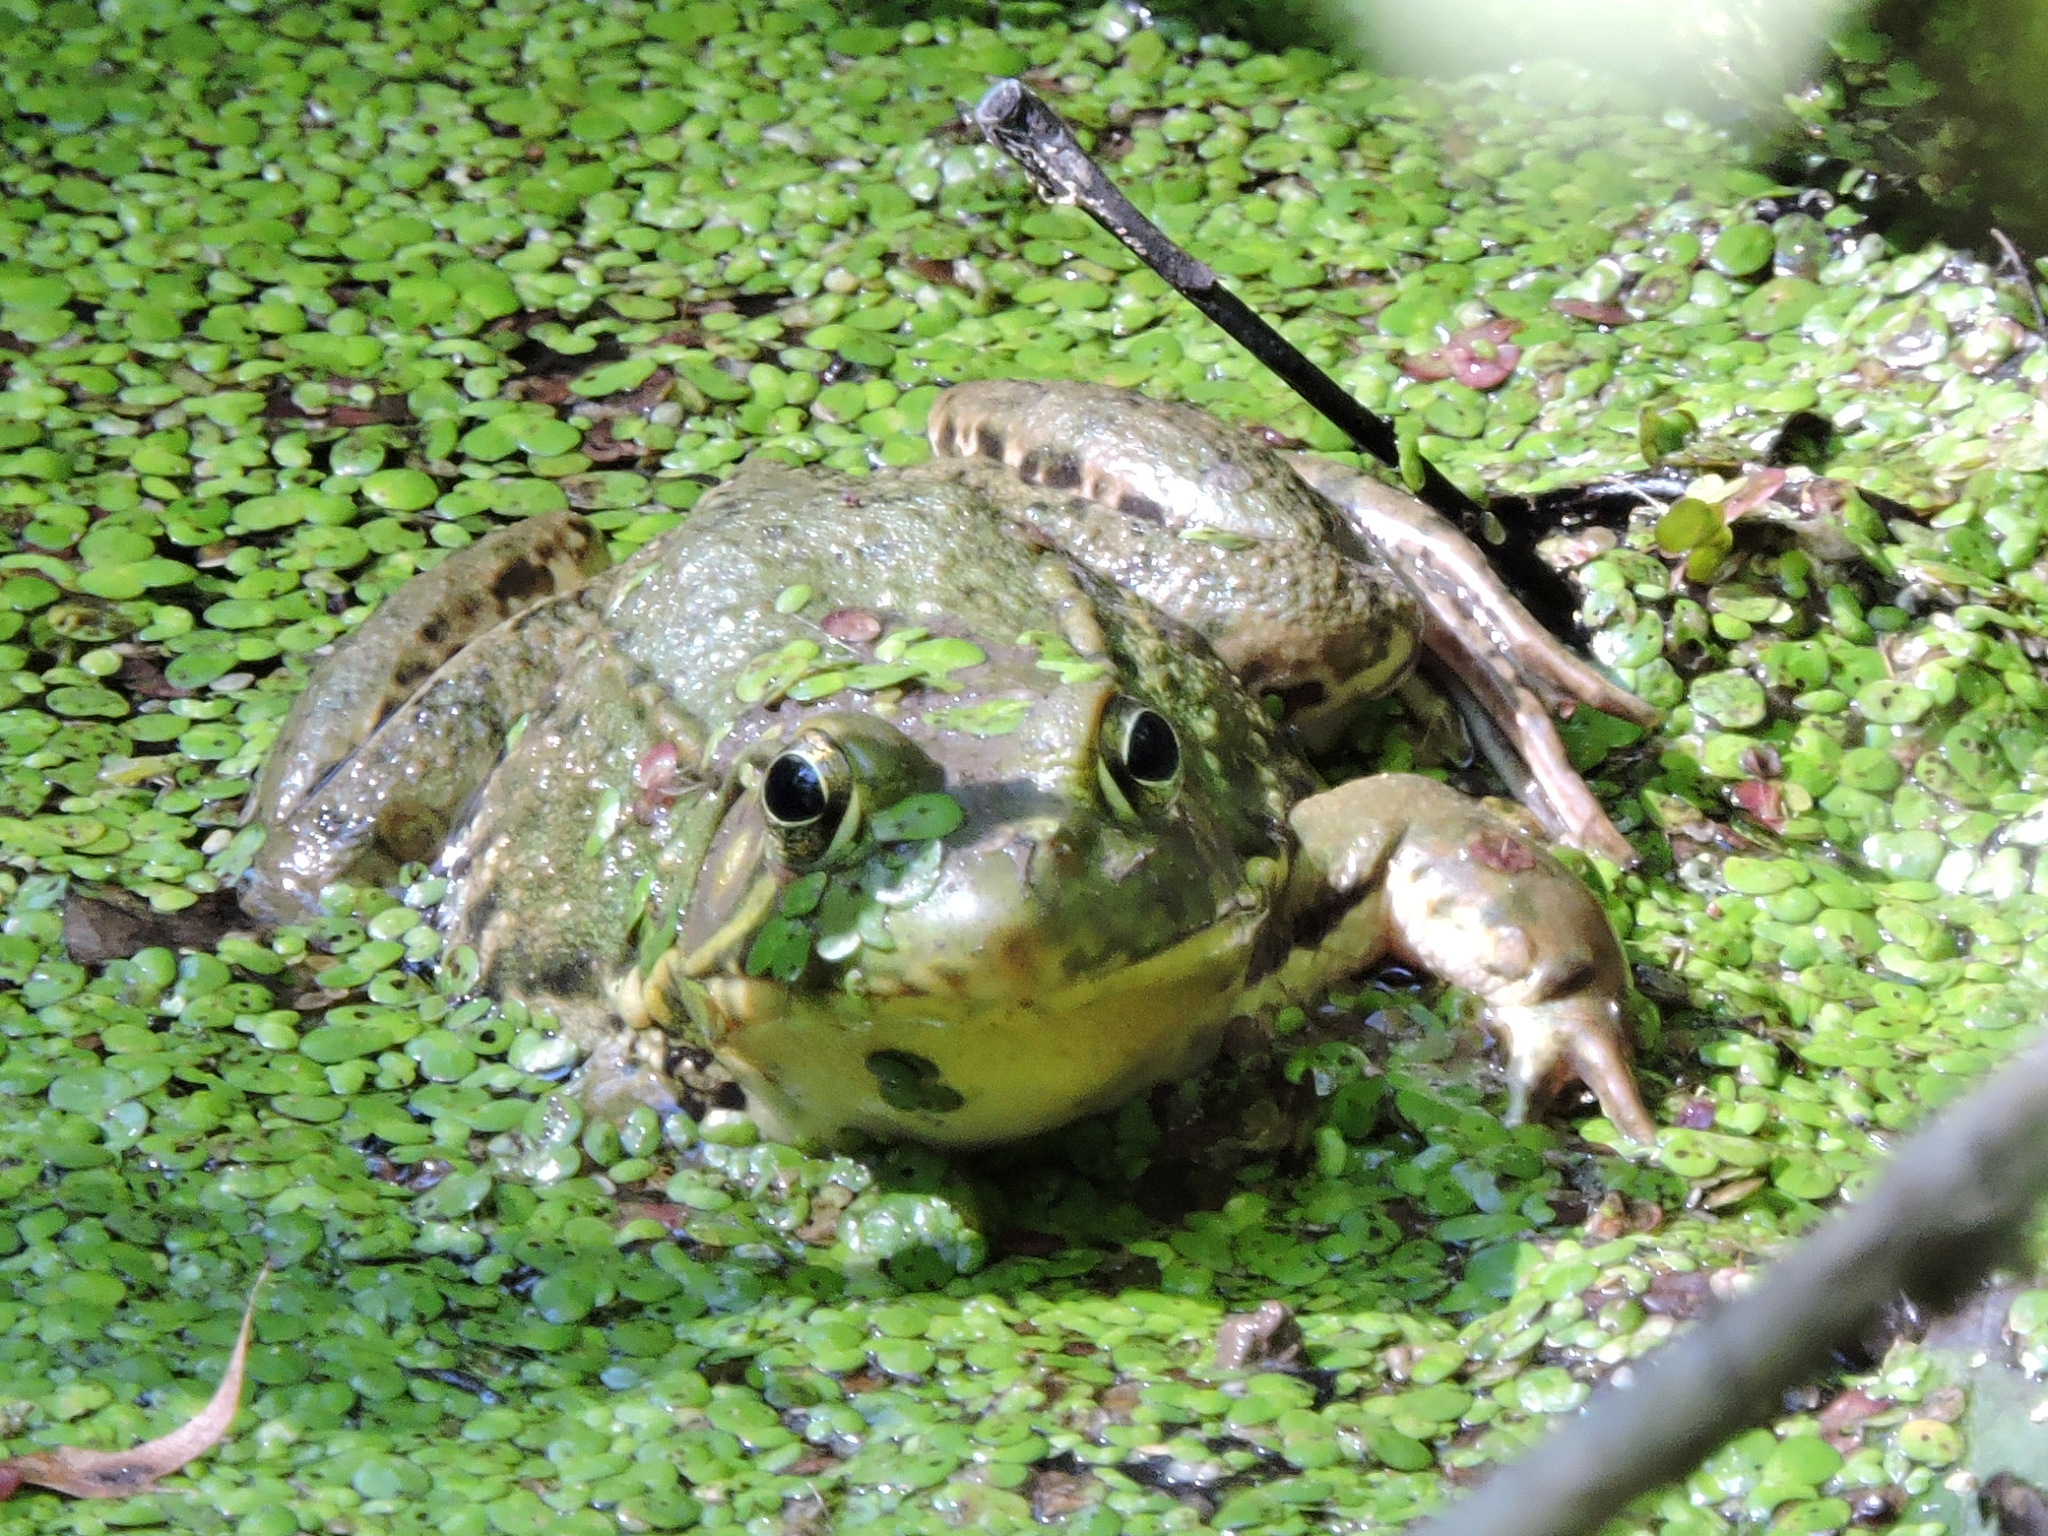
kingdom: Animalia
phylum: Chordata
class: Amphibia
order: Anura
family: Ranidae
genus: Lithobates
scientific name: Lithobates clamitans
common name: Green frog
